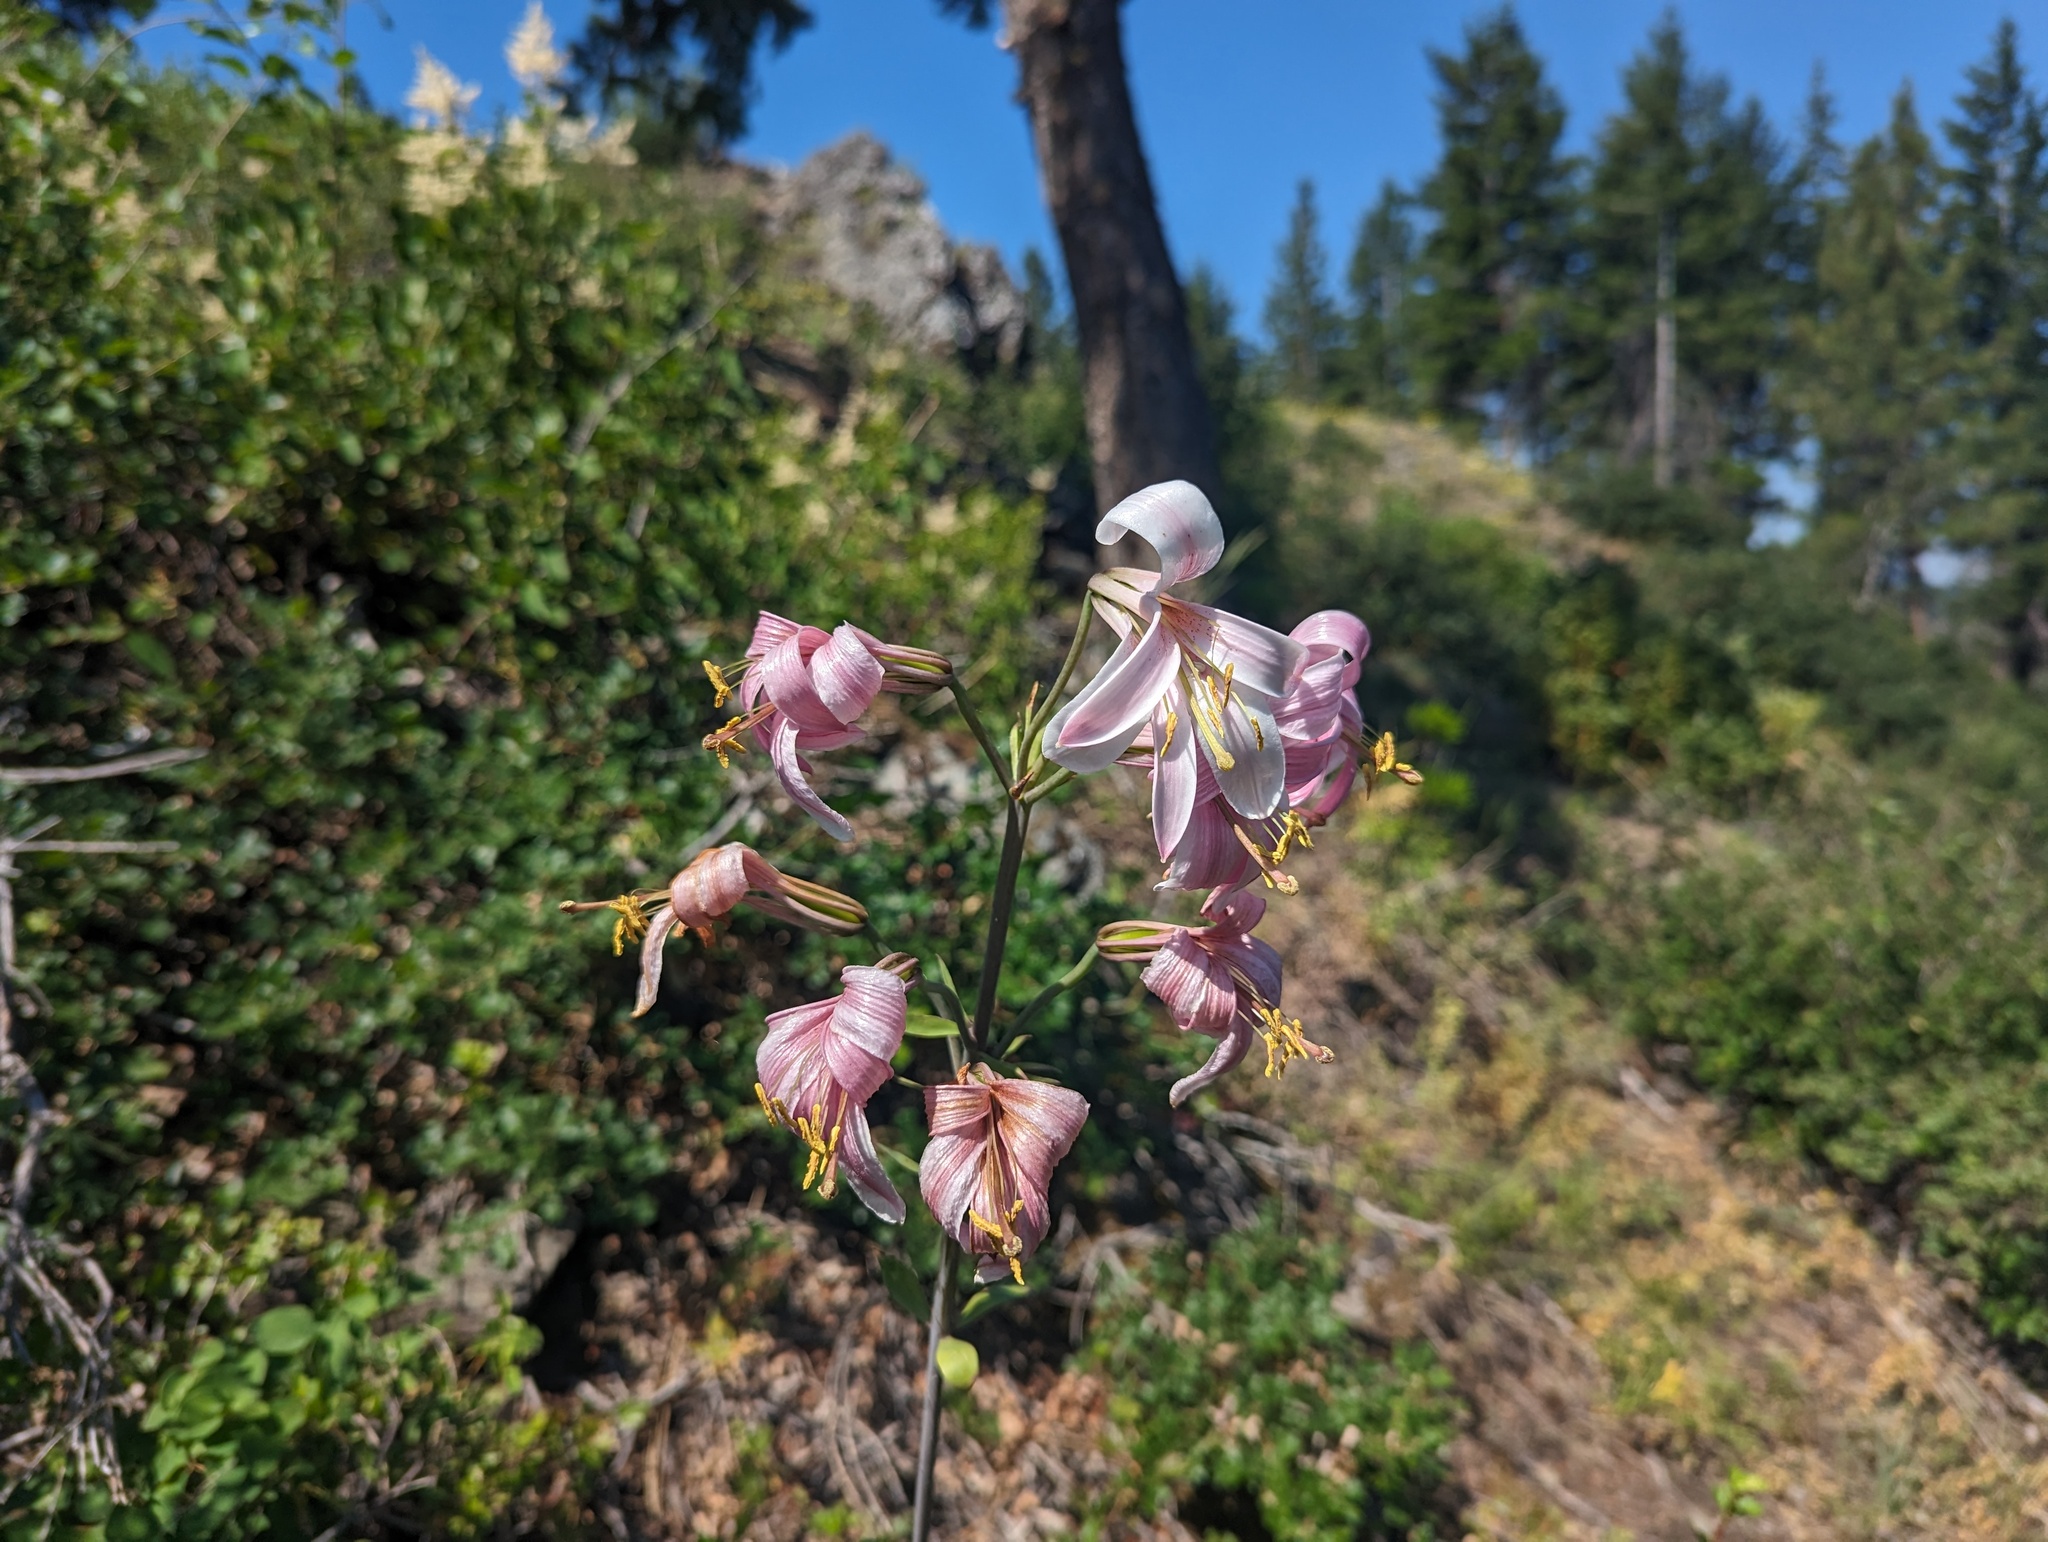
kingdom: Plantae
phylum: Tracheophyta
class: Liliopsida
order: Liliales
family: Liliaceae
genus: Lilium
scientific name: Lilium washingtonianum
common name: Washington lily
